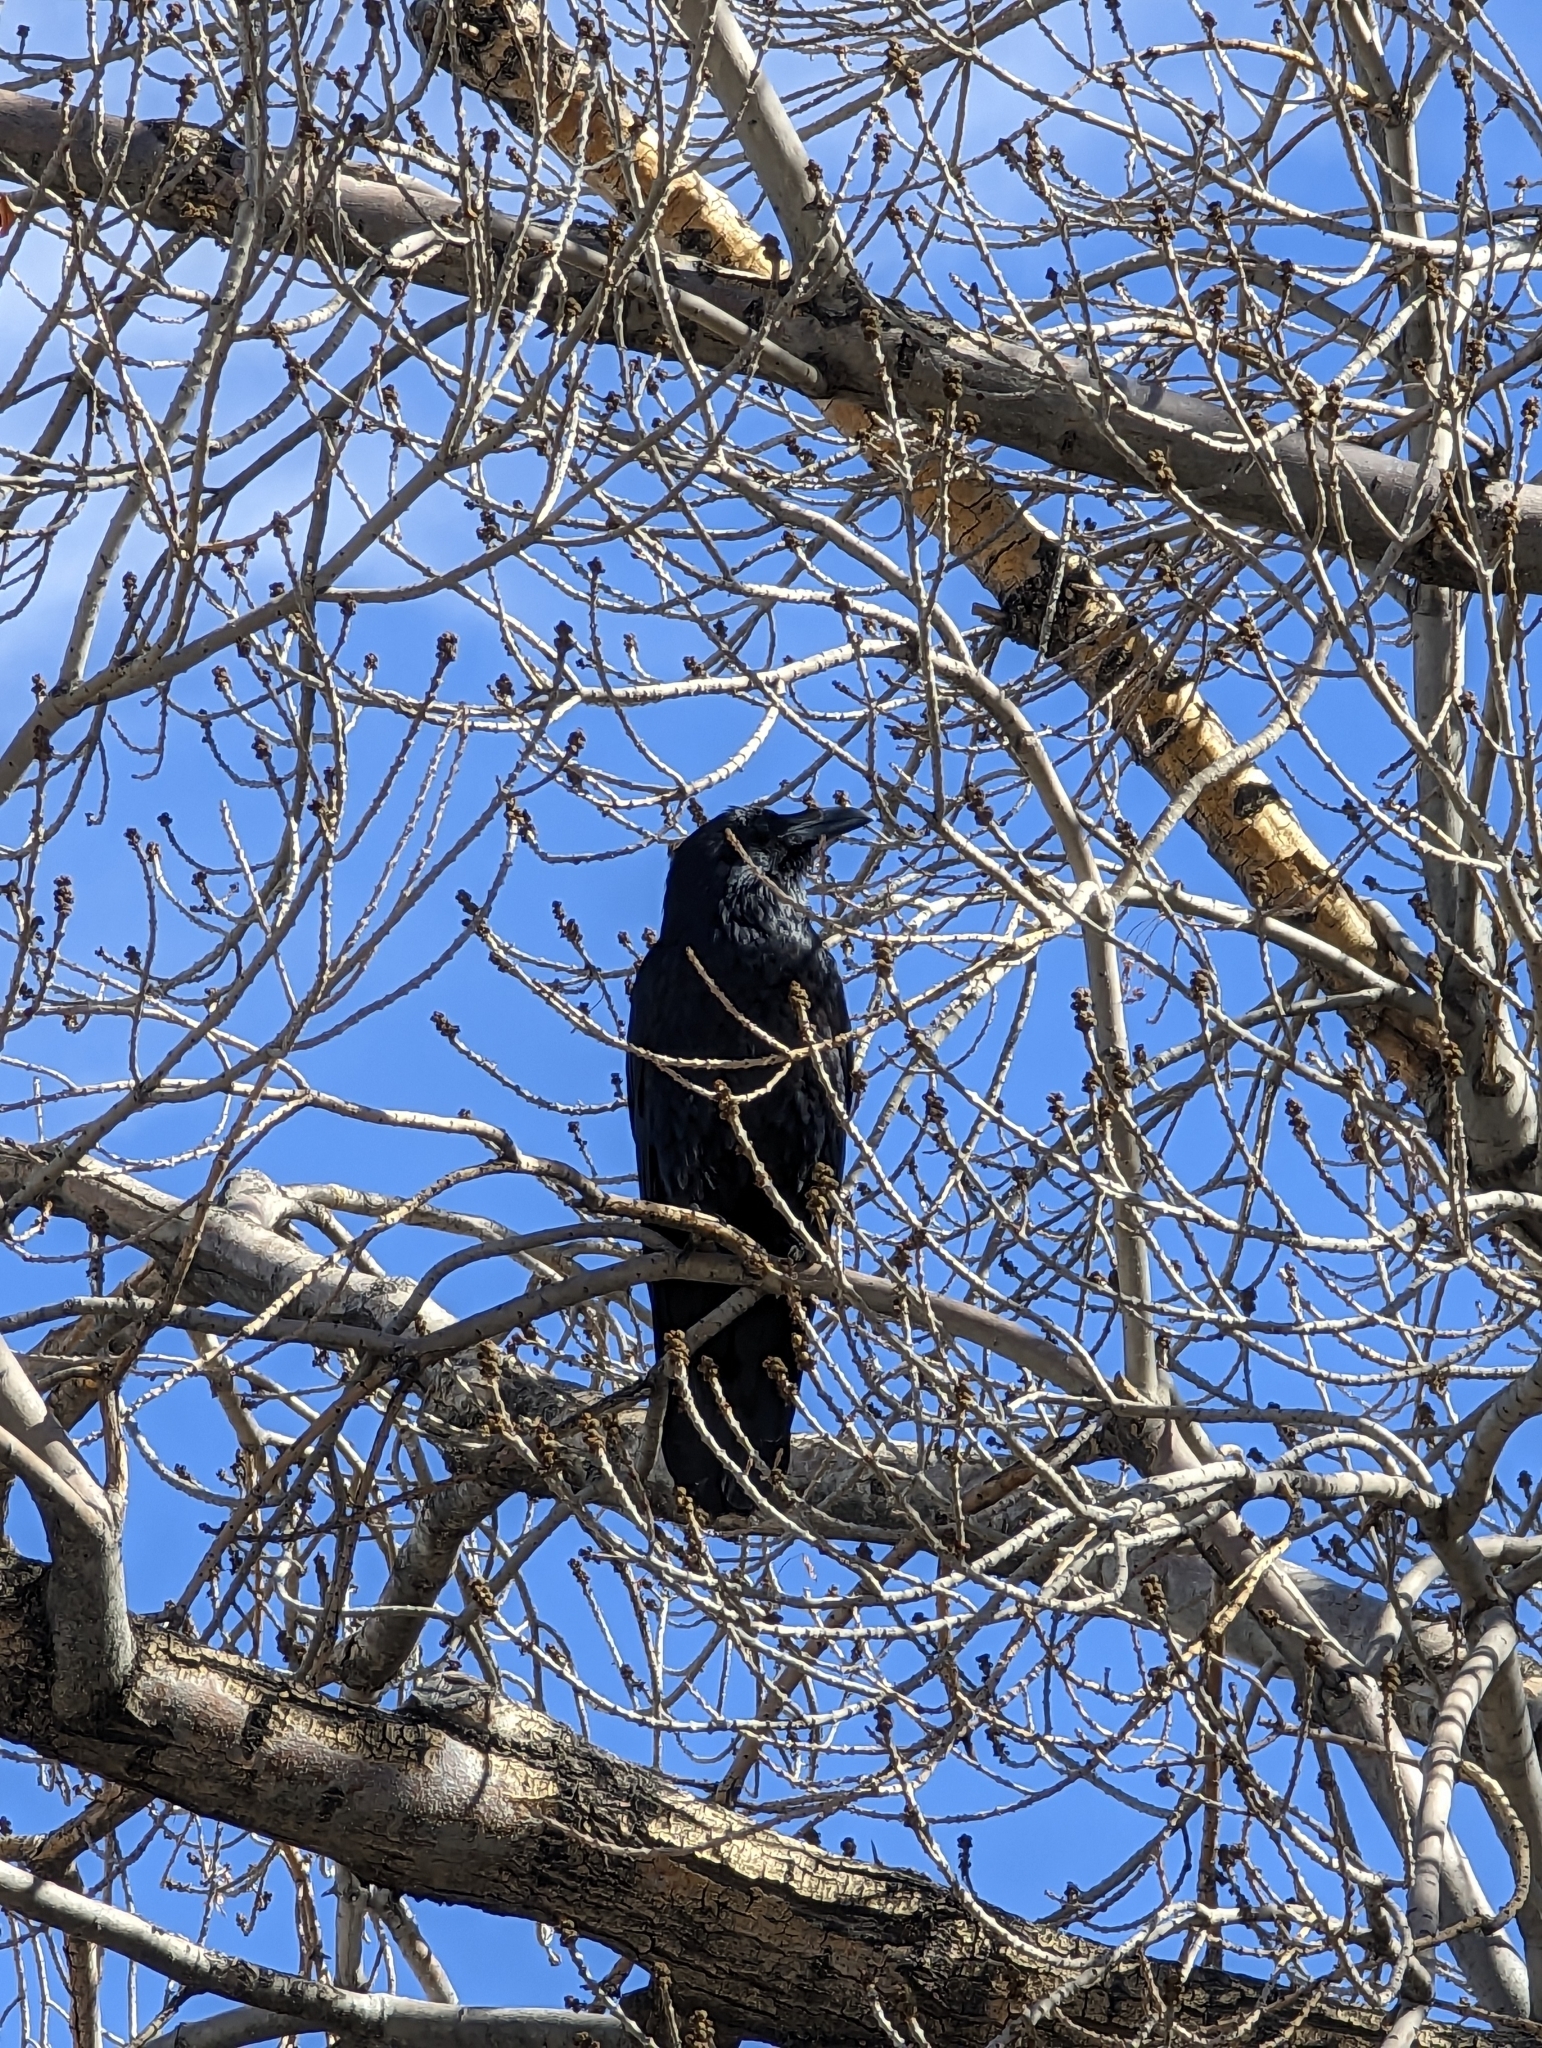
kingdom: Animalia
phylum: Chordata
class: Aves
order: Passeriformes
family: Corvidae
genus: Corvus
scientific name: Corvus corax
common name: Common raven
